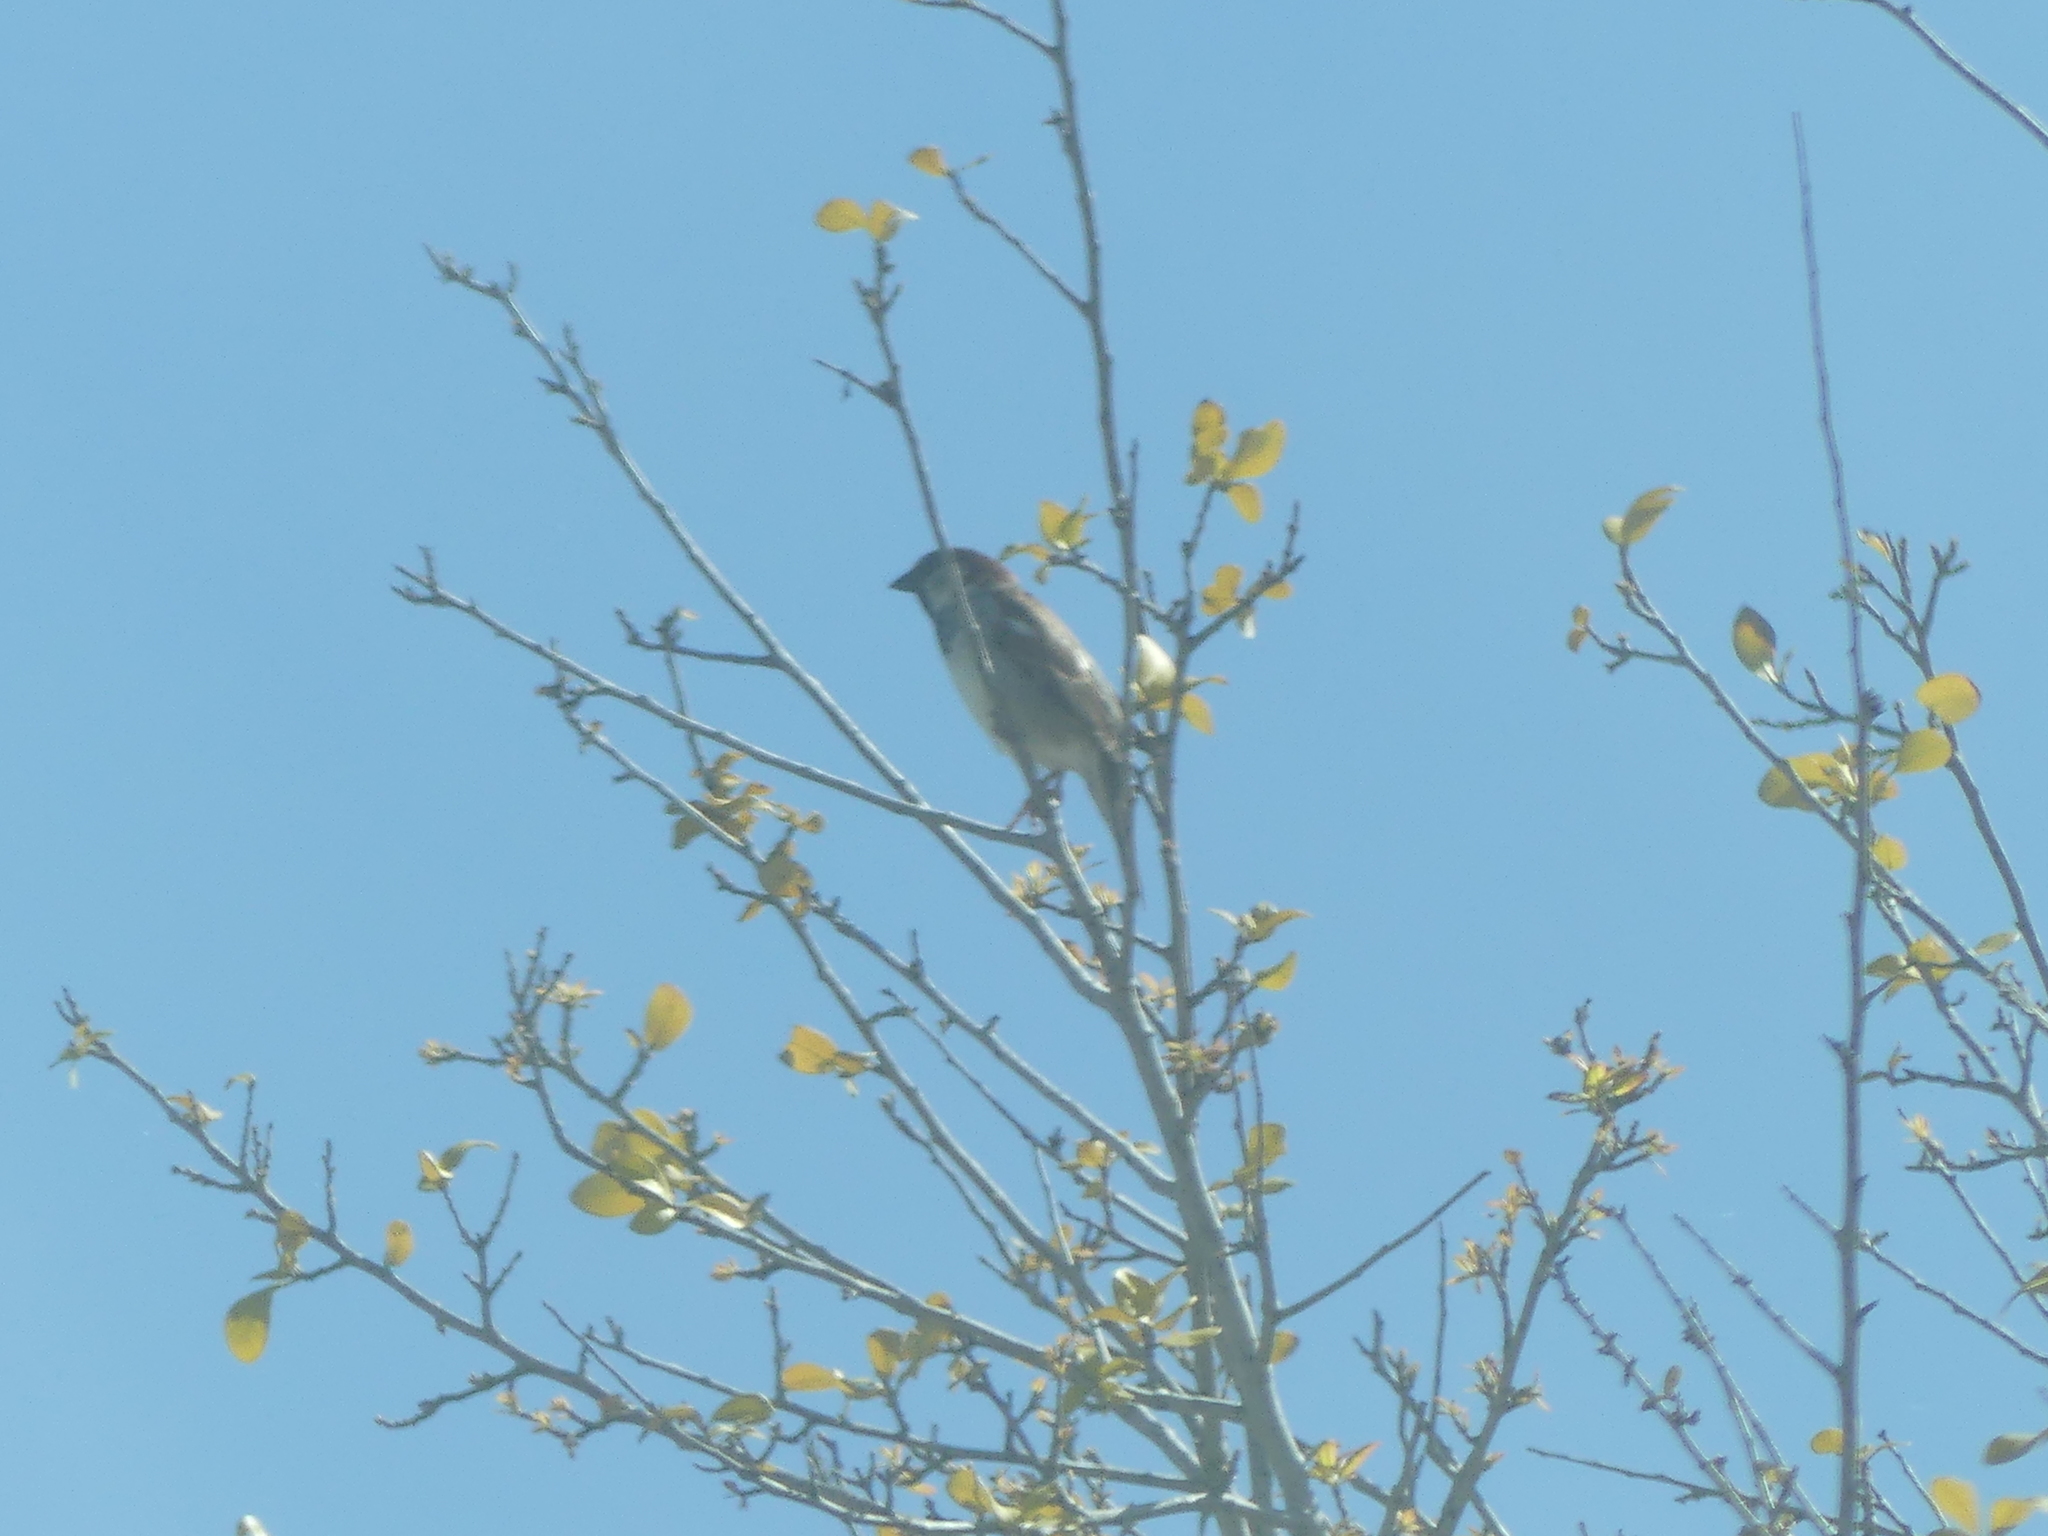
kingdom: Animalia
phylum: Chordata
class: Aves
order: Passeriformes
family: Passeridae
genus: Passer
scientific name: Passer domesticus
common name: House sparrow
